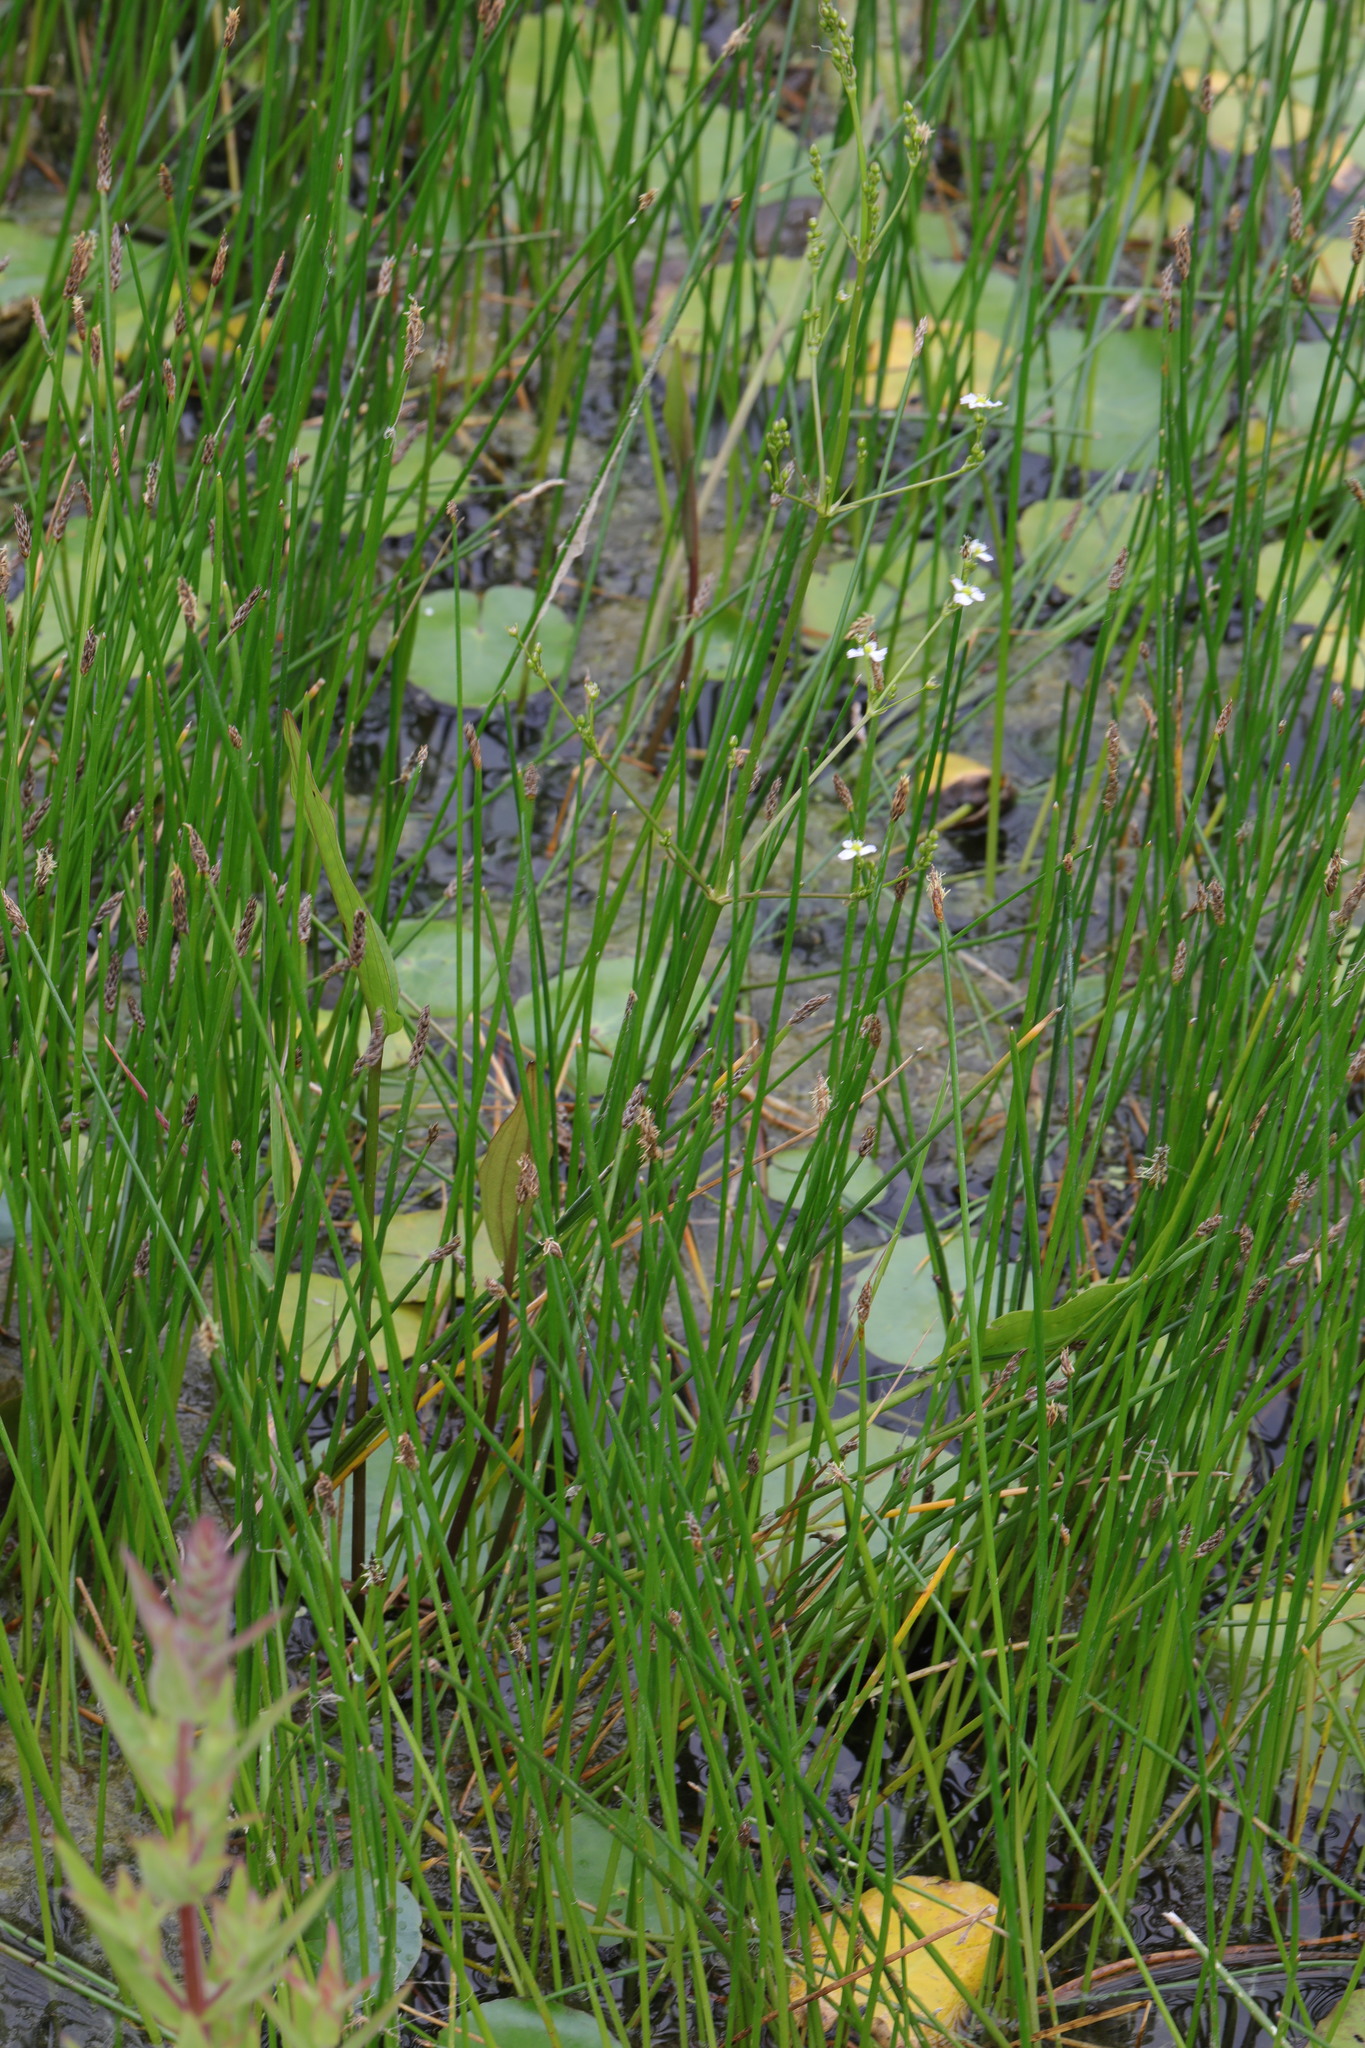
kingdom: Plantae
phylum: Tracheophyta
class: Liliopsida
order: Alismatales
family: Alismataceae
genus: Alisma
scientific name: Alisma plantago-aquatica
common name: Water-plantain
